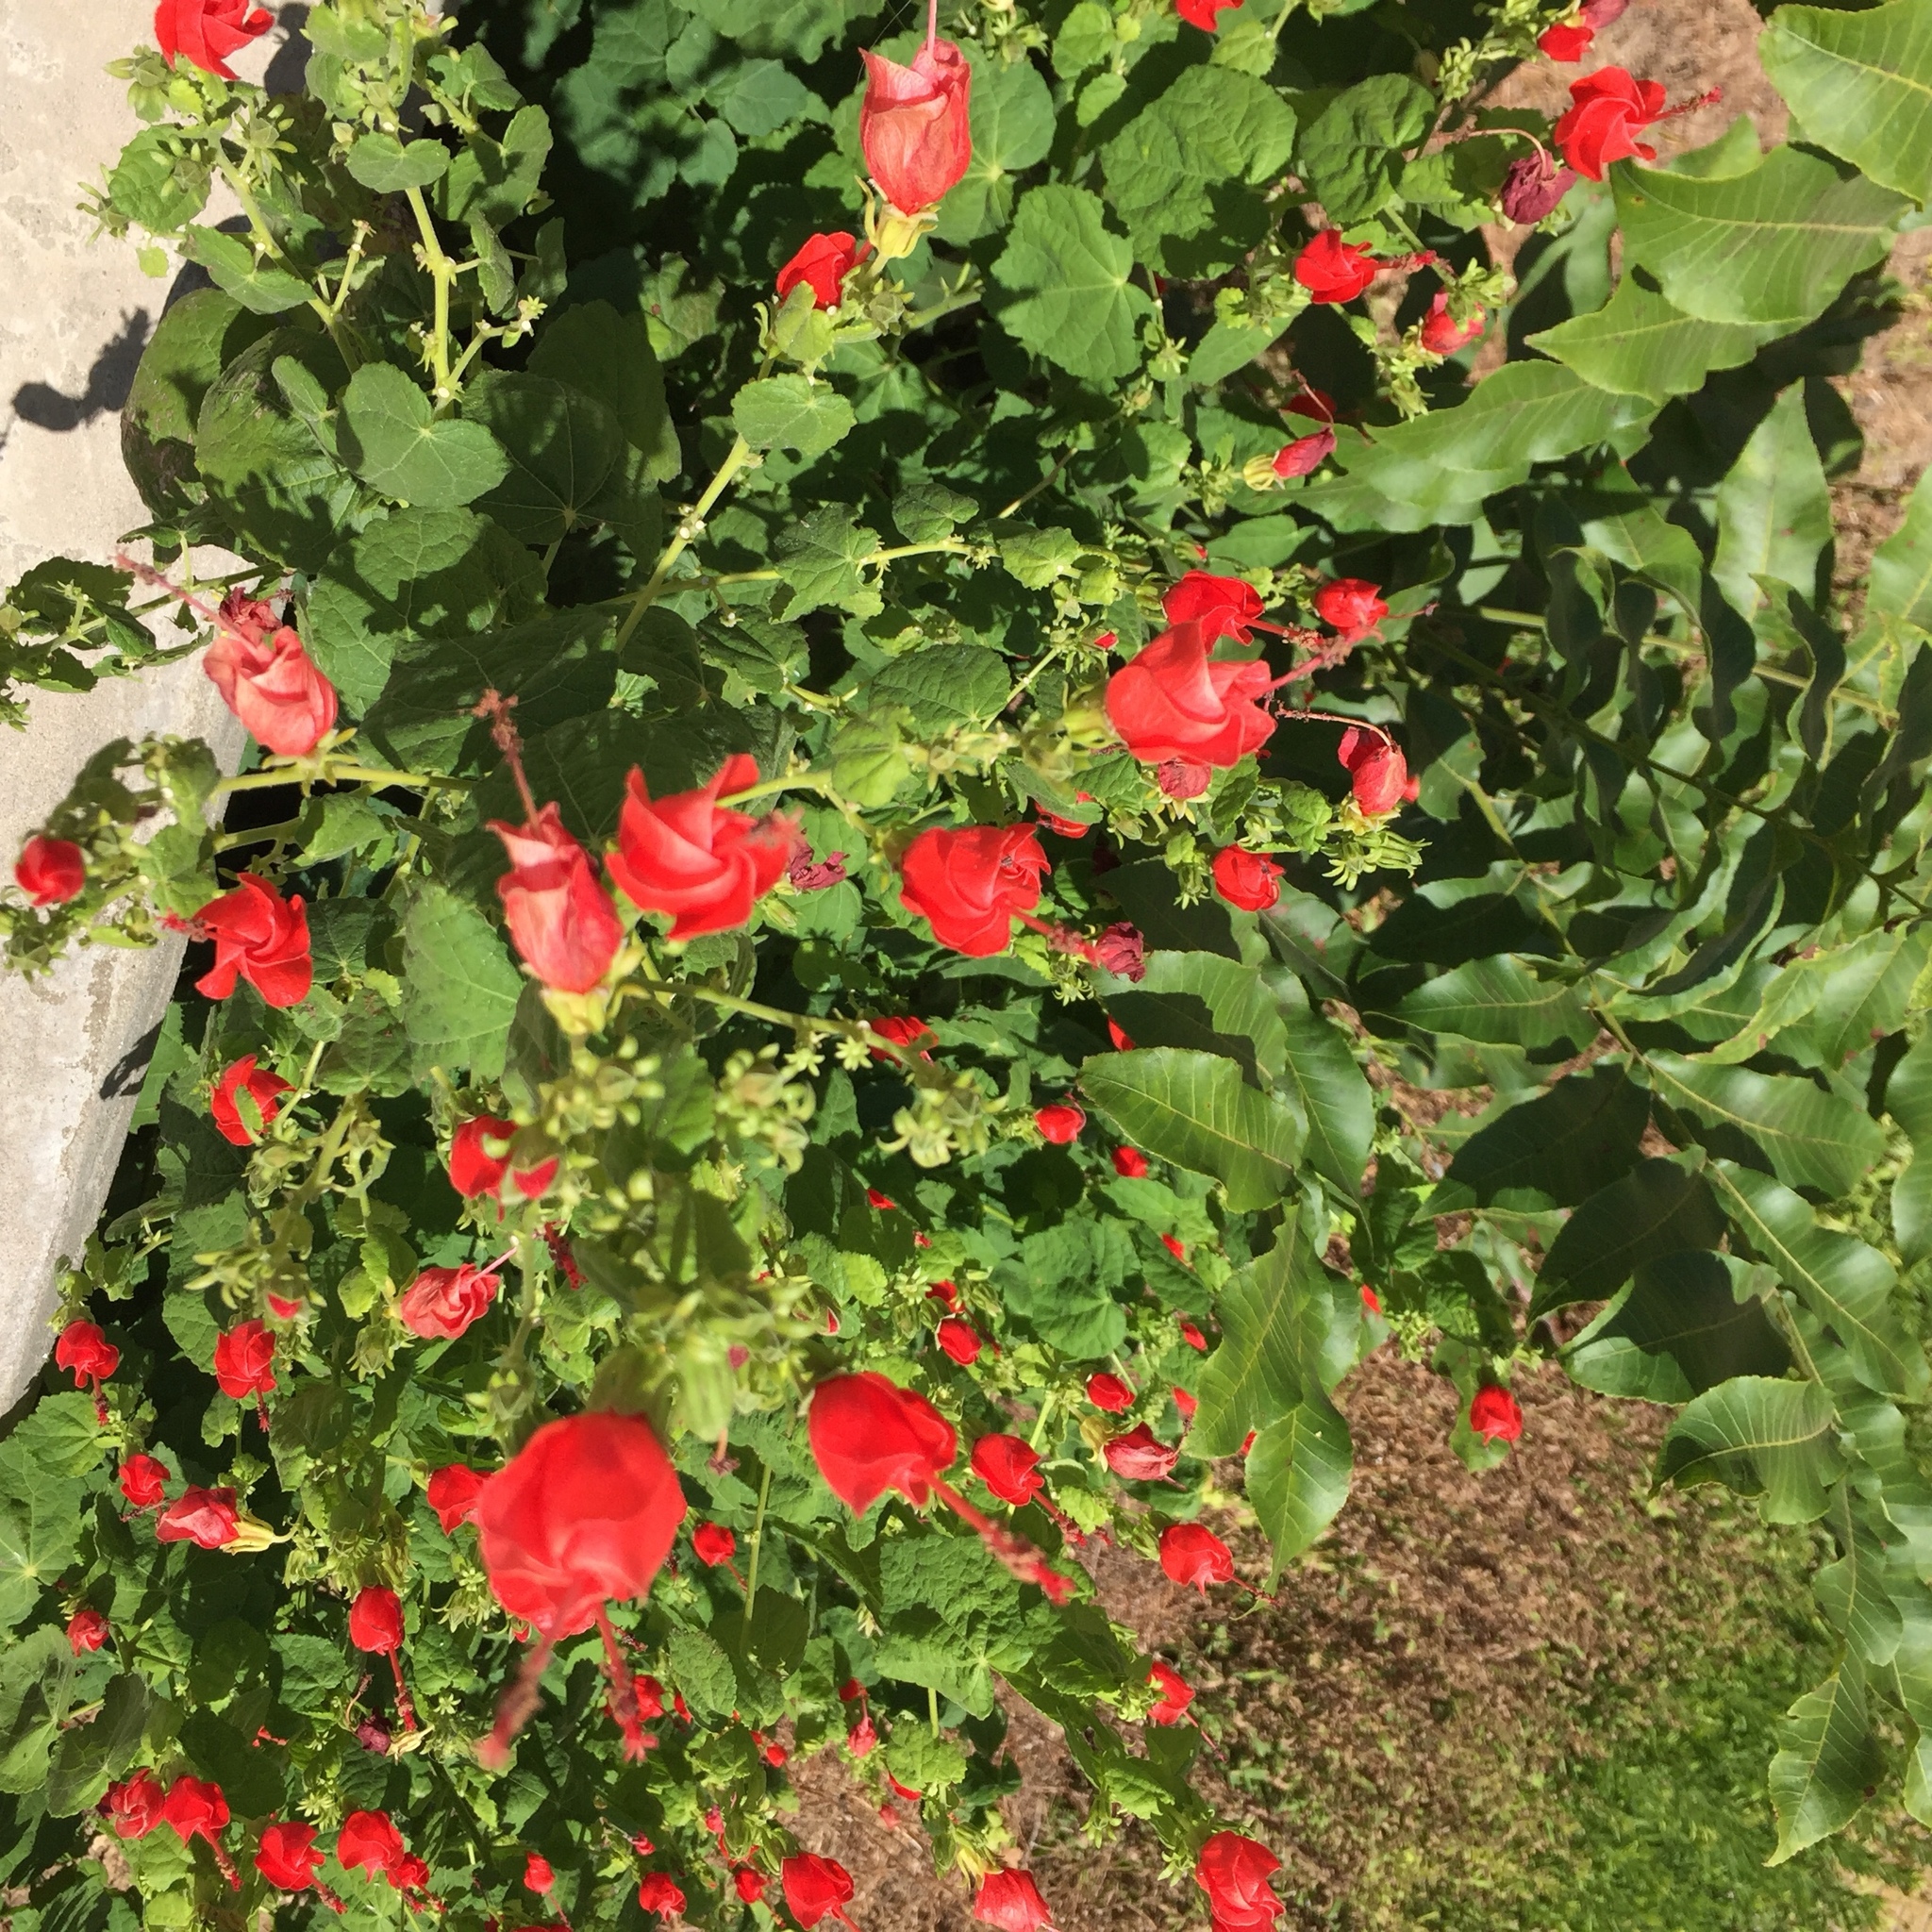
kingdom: Plantae
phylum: Tracheophyta
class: Magnoliopsida
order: Malvales
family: Malvaceae
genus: Malvaviscus
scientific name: Malvaviscus arboreus
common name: Wax mallow
